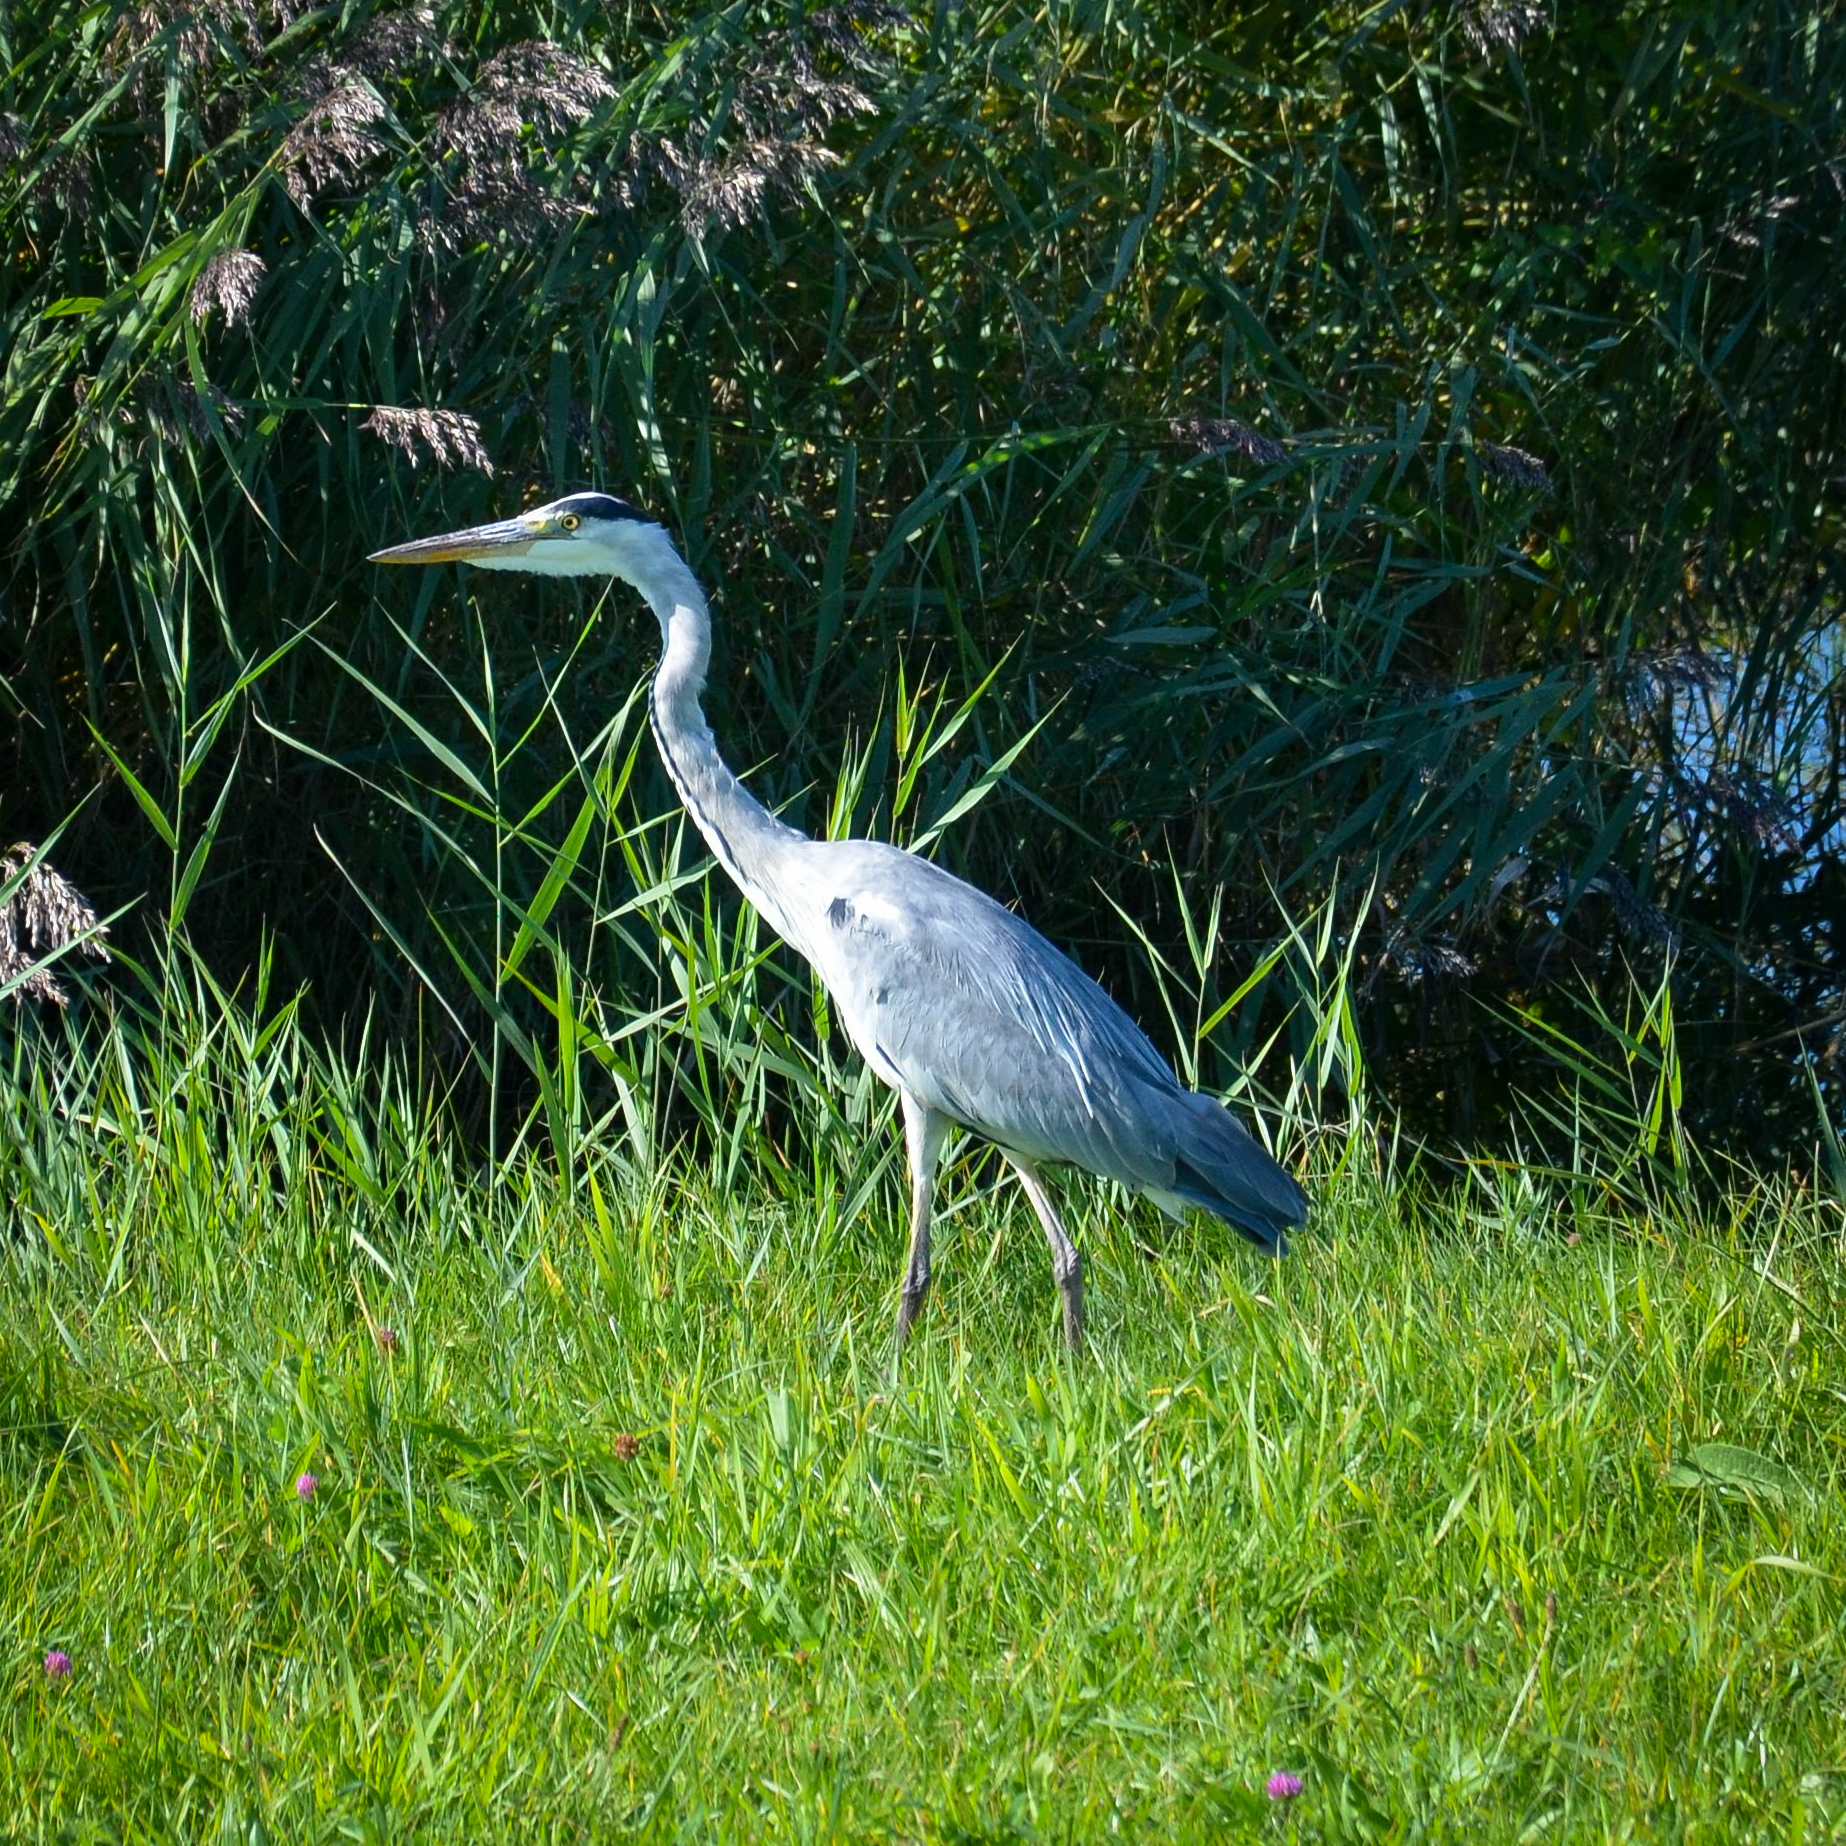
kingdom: Animalia
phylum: Chordata
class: Aves
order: Pelecaniformes
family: Ardeidae
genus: Ardea
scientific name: Ardea cinerea
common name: Grey heron
